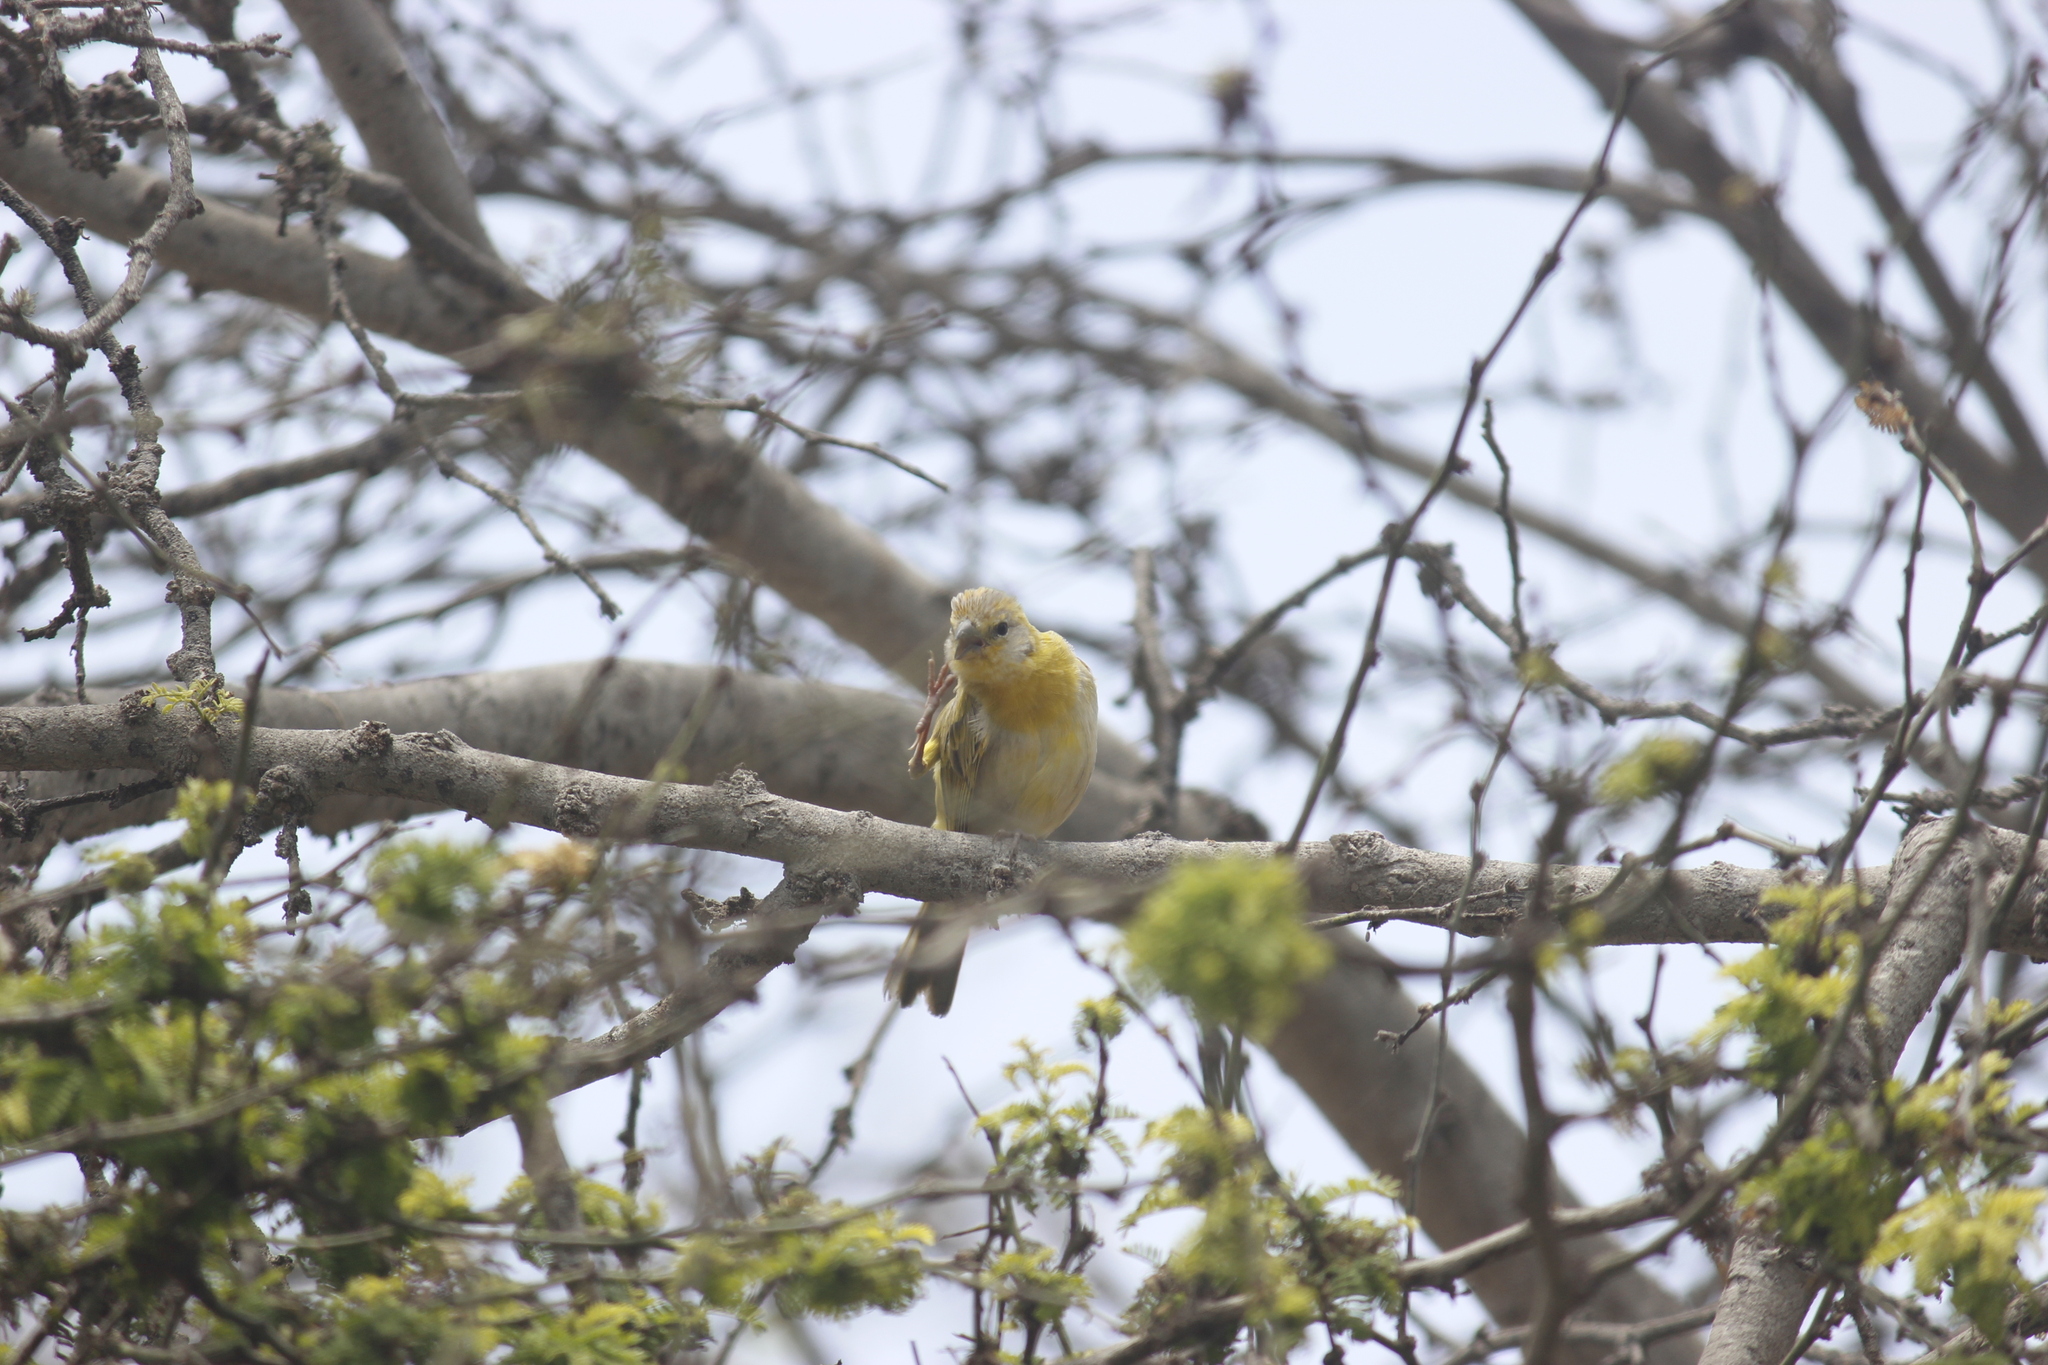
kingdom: Animalia
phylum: Chordata
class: Aves
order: Passeriformes
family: Thraupidae
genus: Sicalis
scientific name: Sicalis flaveola
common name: Saffron finch
